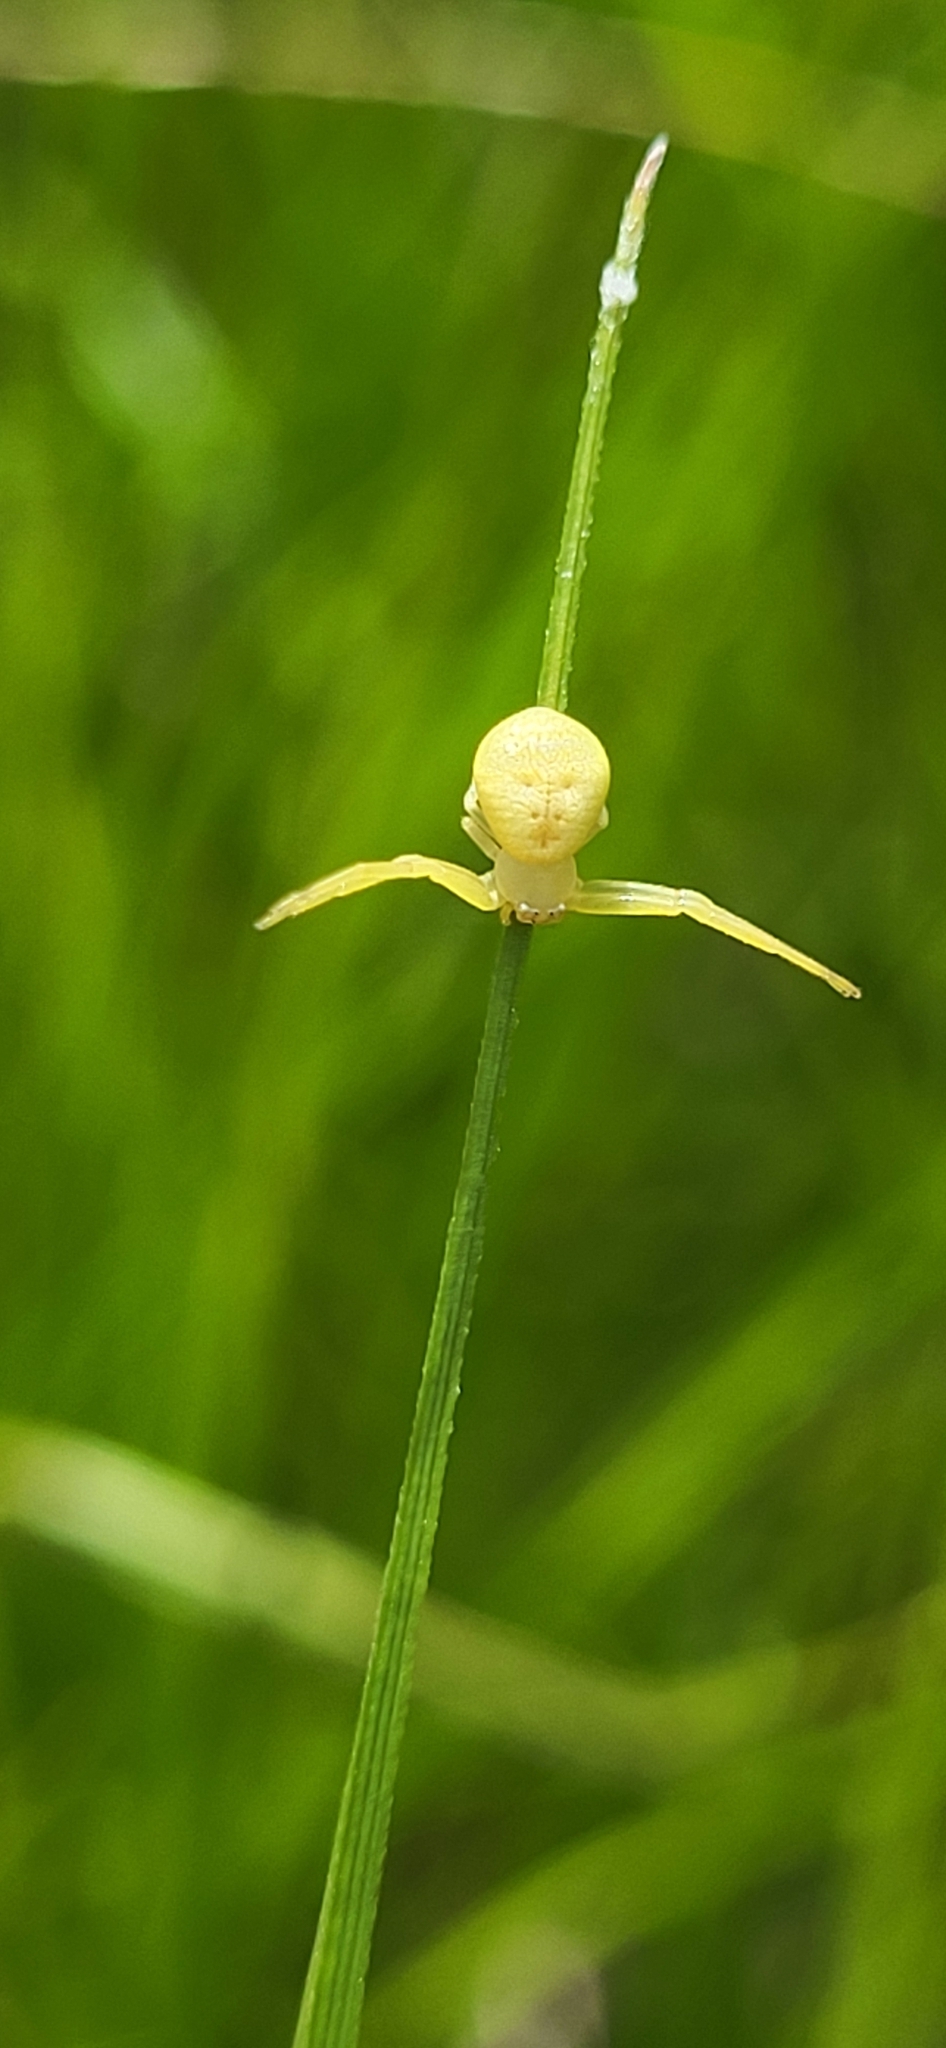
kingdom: Animalia
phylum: Arthropoda
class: Arachnida
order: Araneae
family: Thomisidae
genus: Misumessus
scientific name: Misumessus oblongus
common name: American green crab spider
